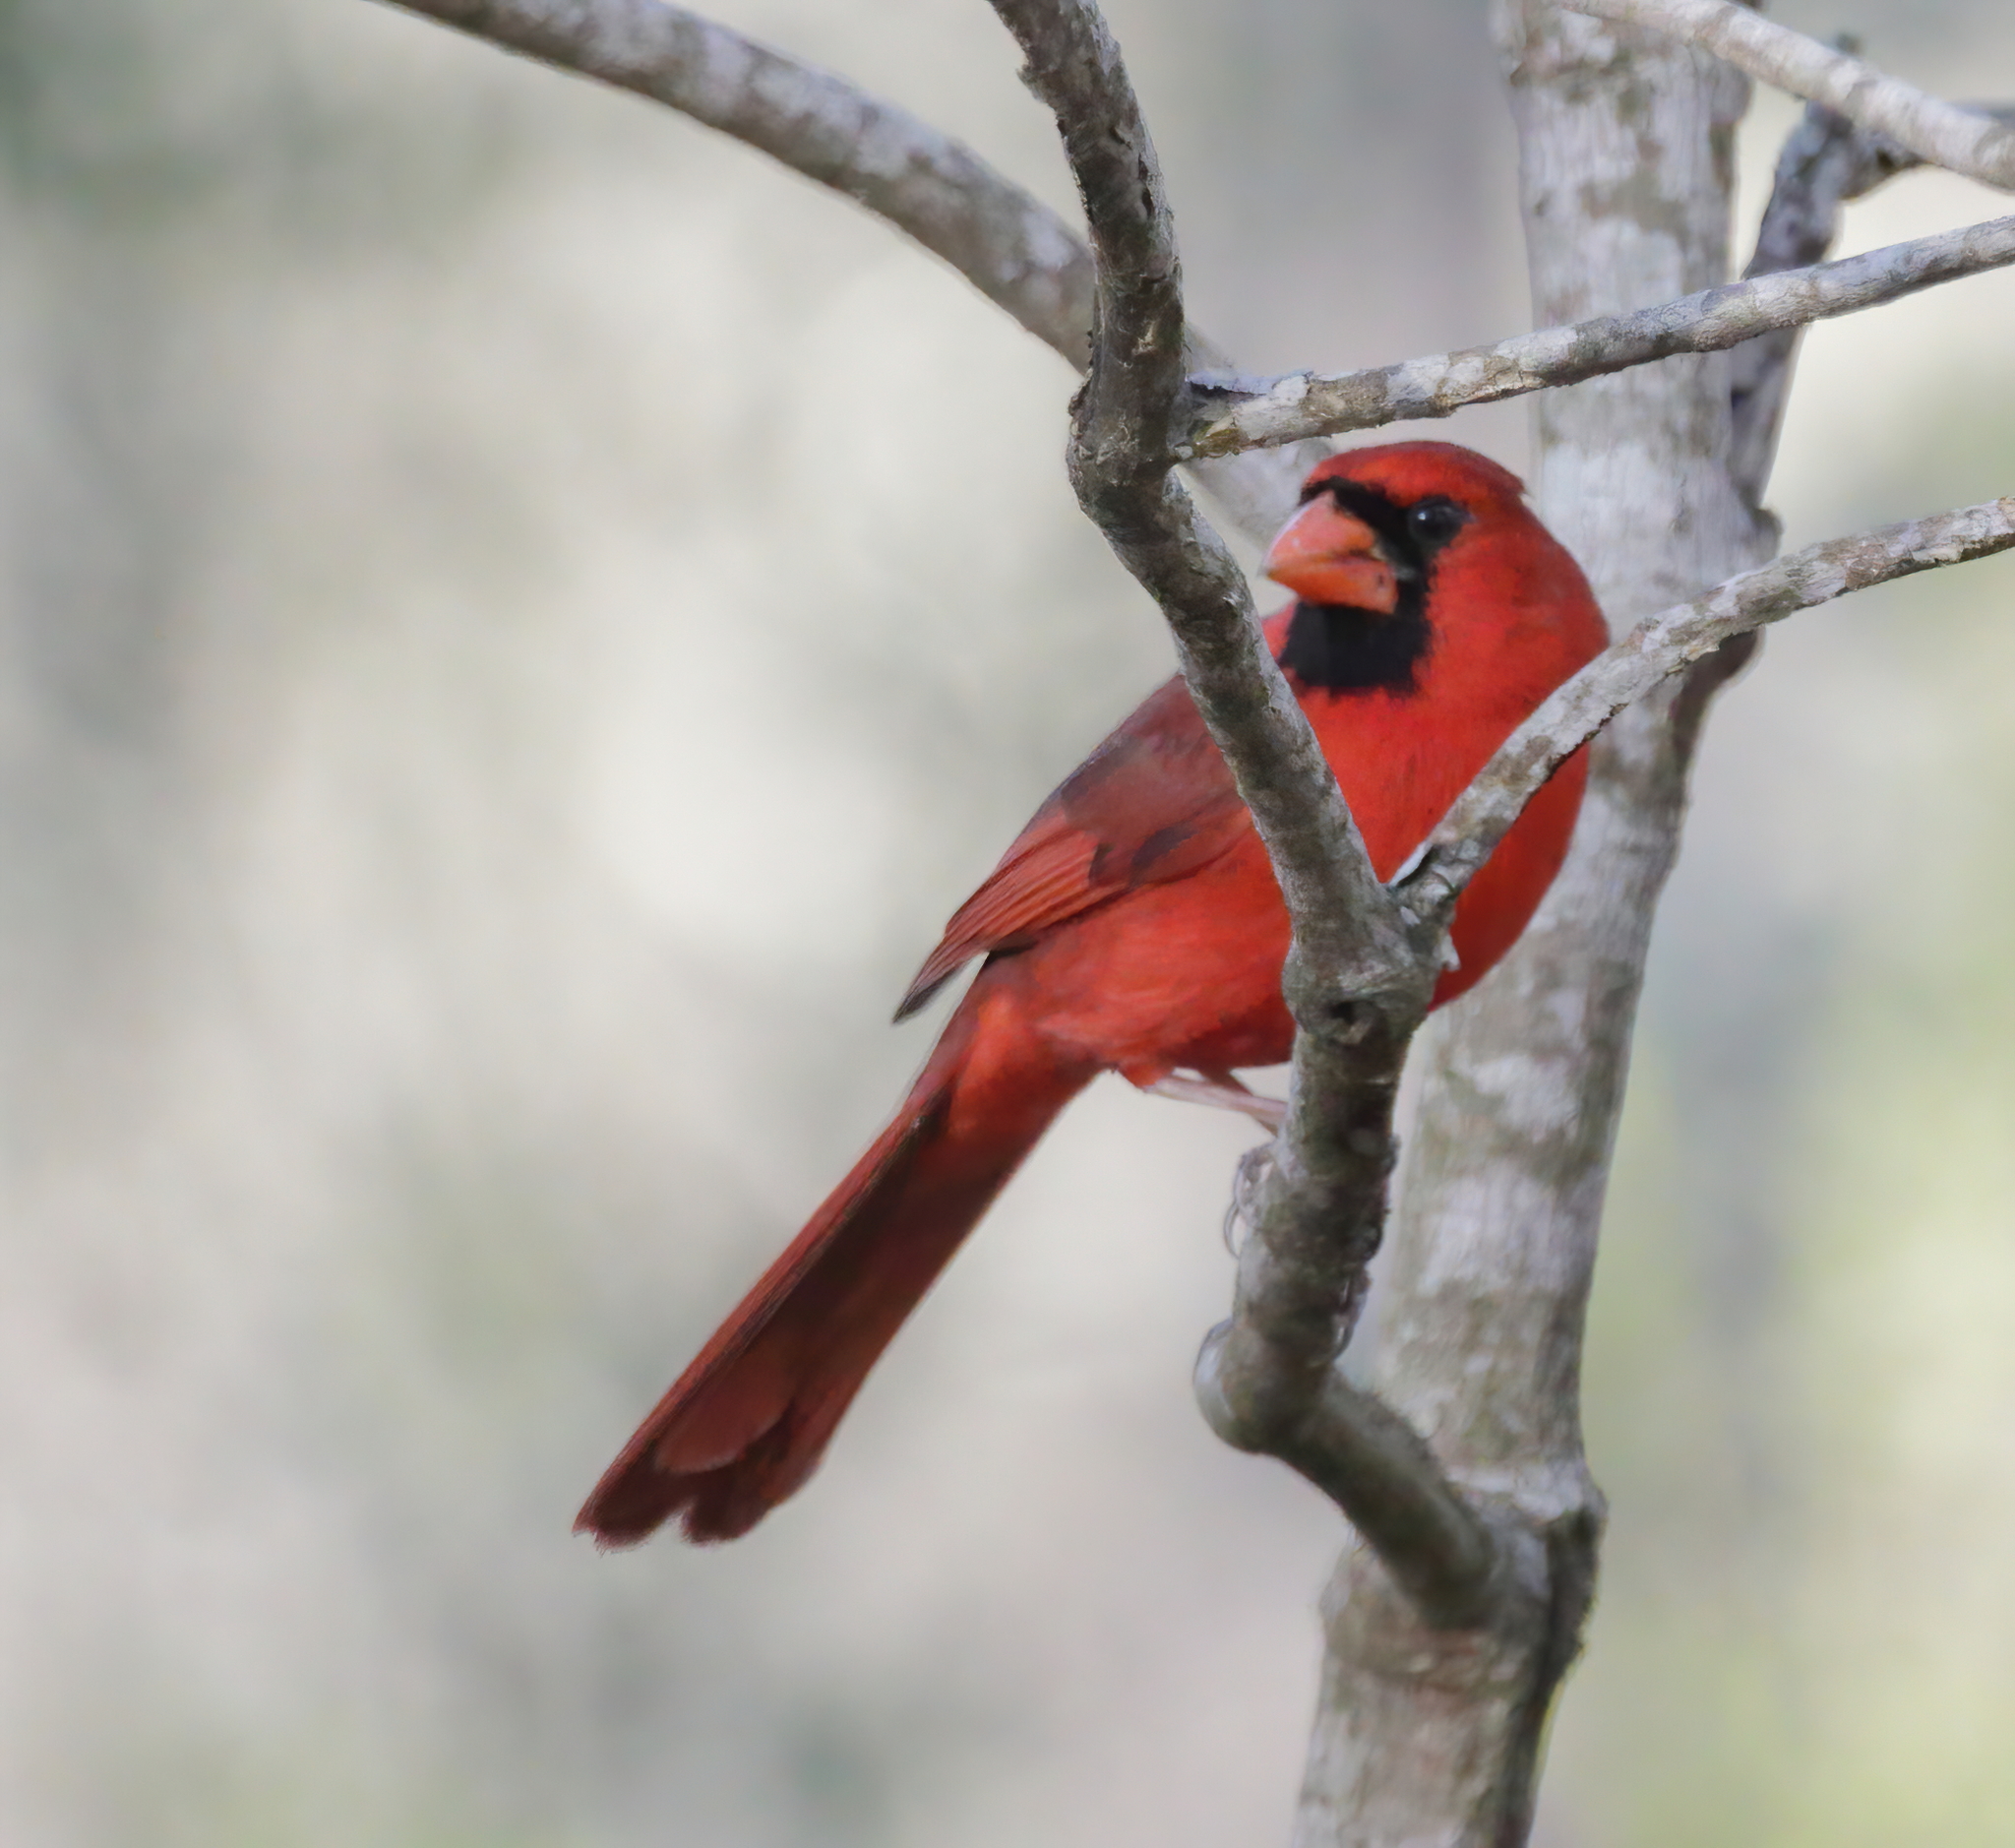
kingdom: Animalia
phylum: Chordata
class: Aves
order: Passeriformes
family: Cardinalidae
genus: Cardinalis
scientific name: Cardinalis cardinalis
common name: Northern cardinal
